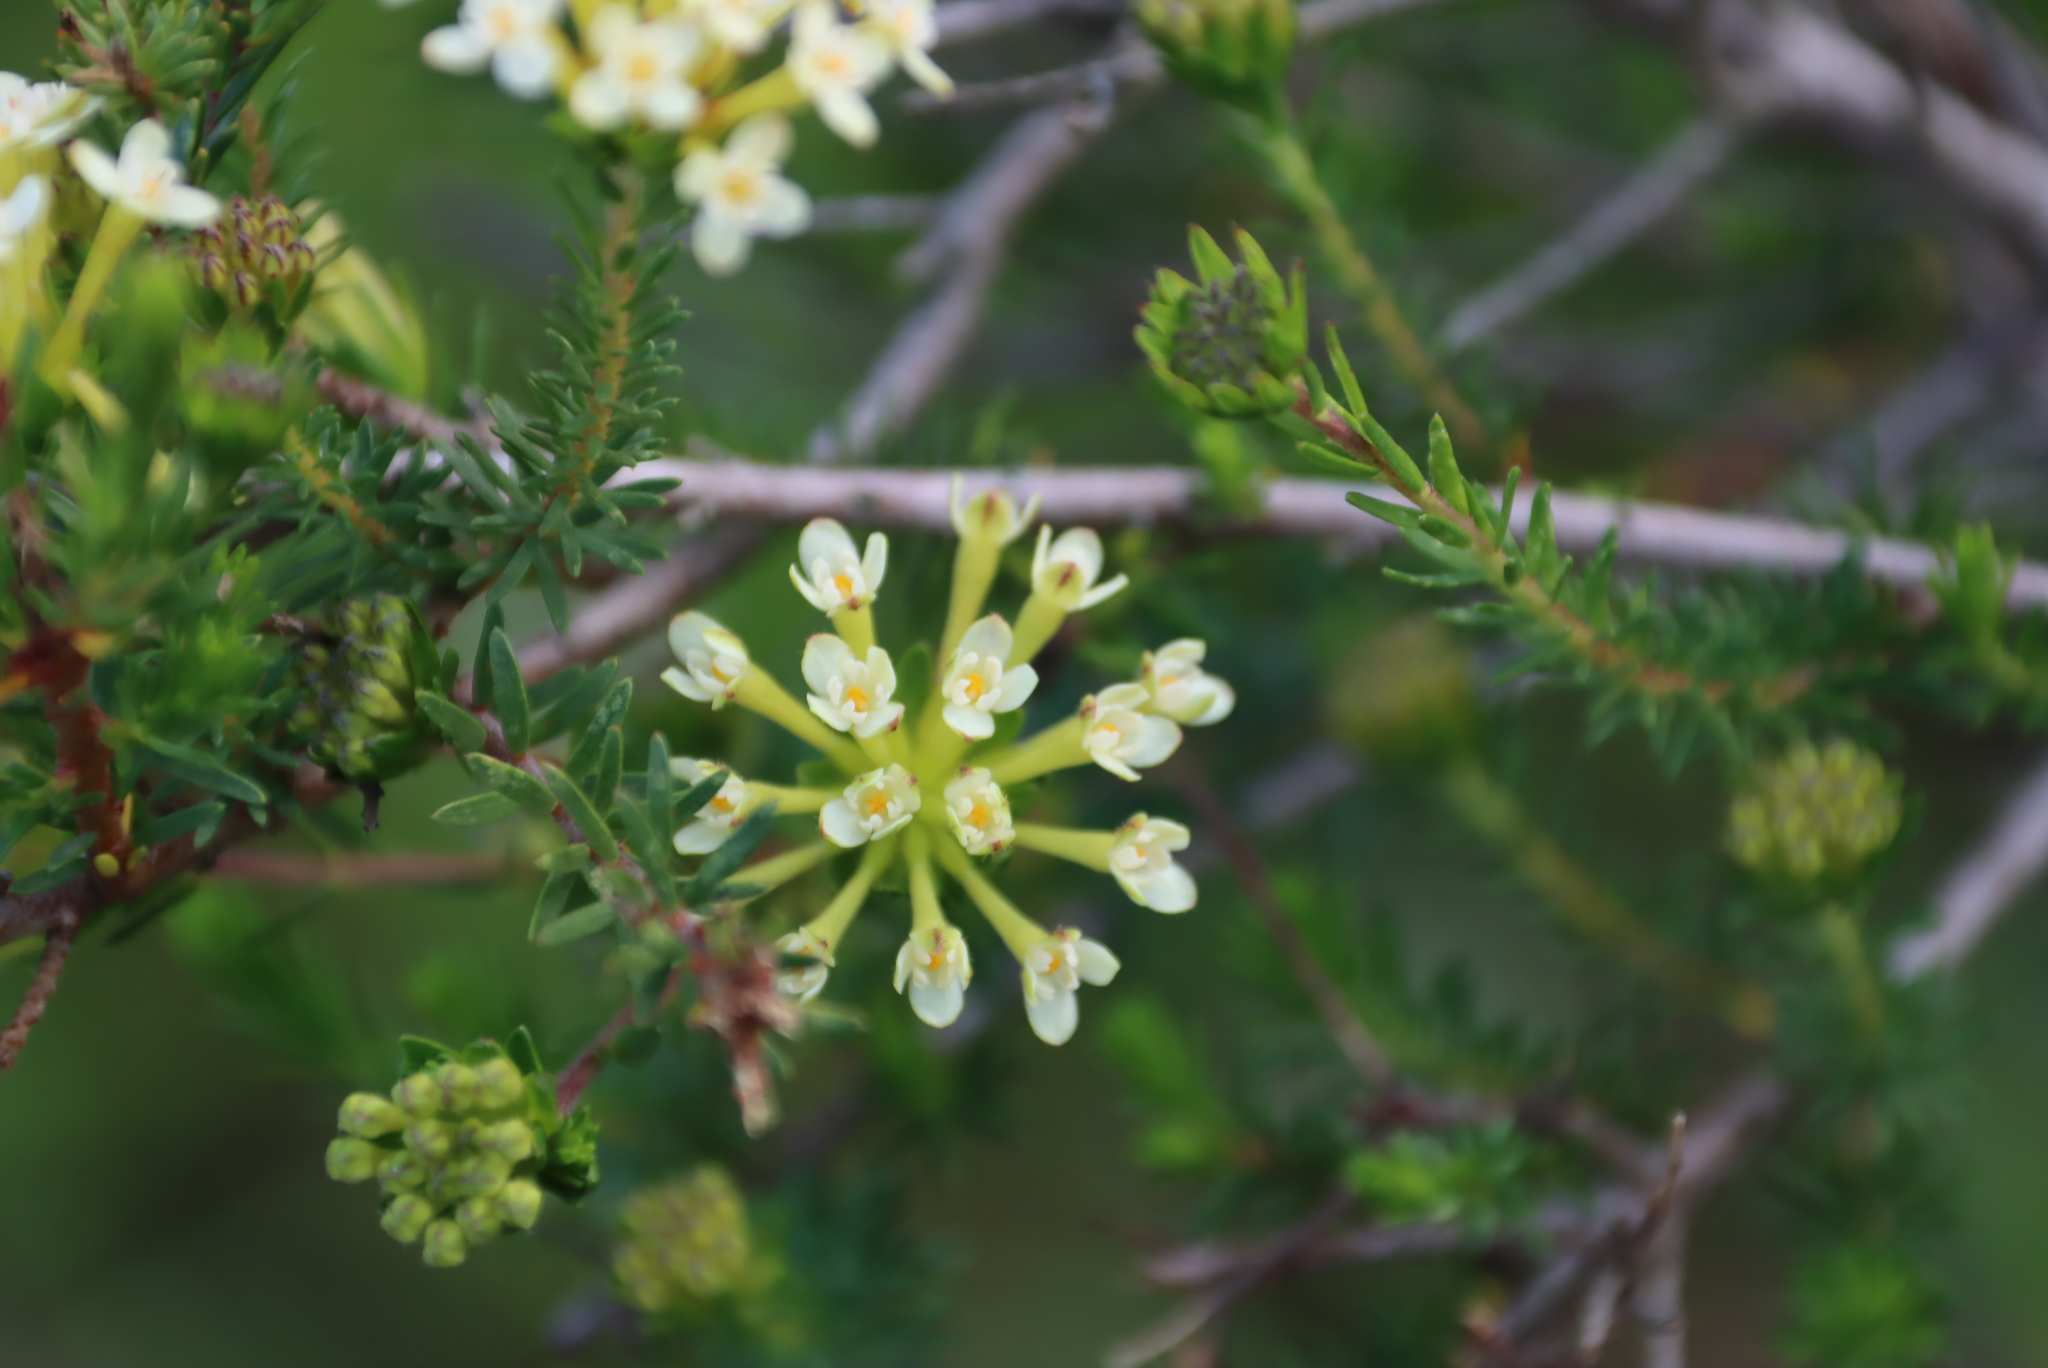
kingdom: Plantae
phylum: Tracheophyta
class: Magnoliopsida
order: Malvales
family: Thymelaeaceae
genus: Gnidia
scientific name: Gnidia squarrosa
